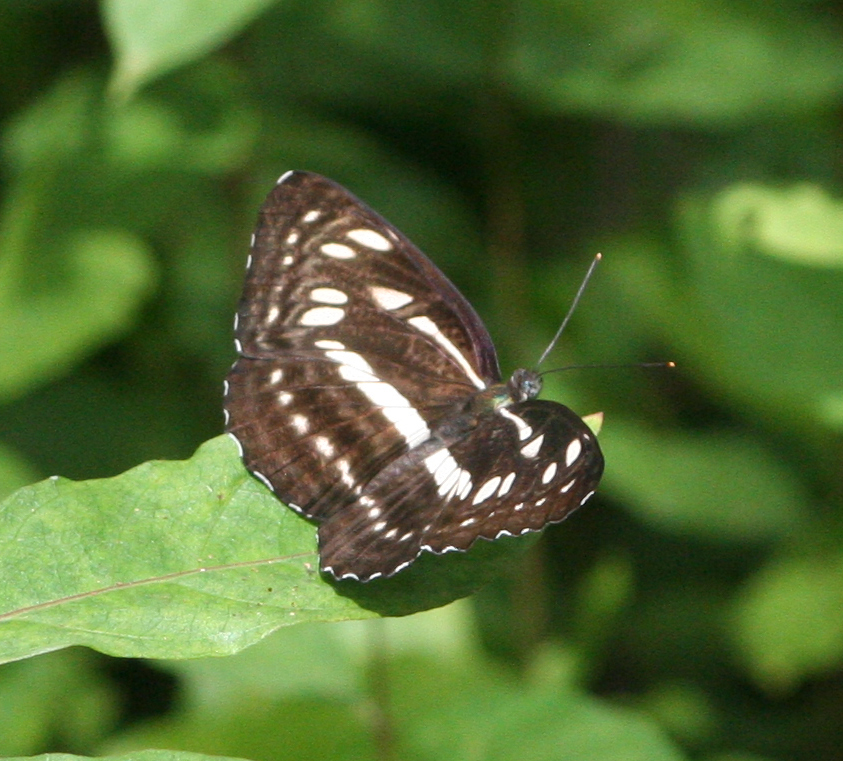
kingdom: Animalia
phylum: Arthropoda
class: Insecta
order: Lepidoptera
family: Nymphalidae
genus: Phaedyma
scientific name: Phaedyma columella
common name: Short banded sailer
